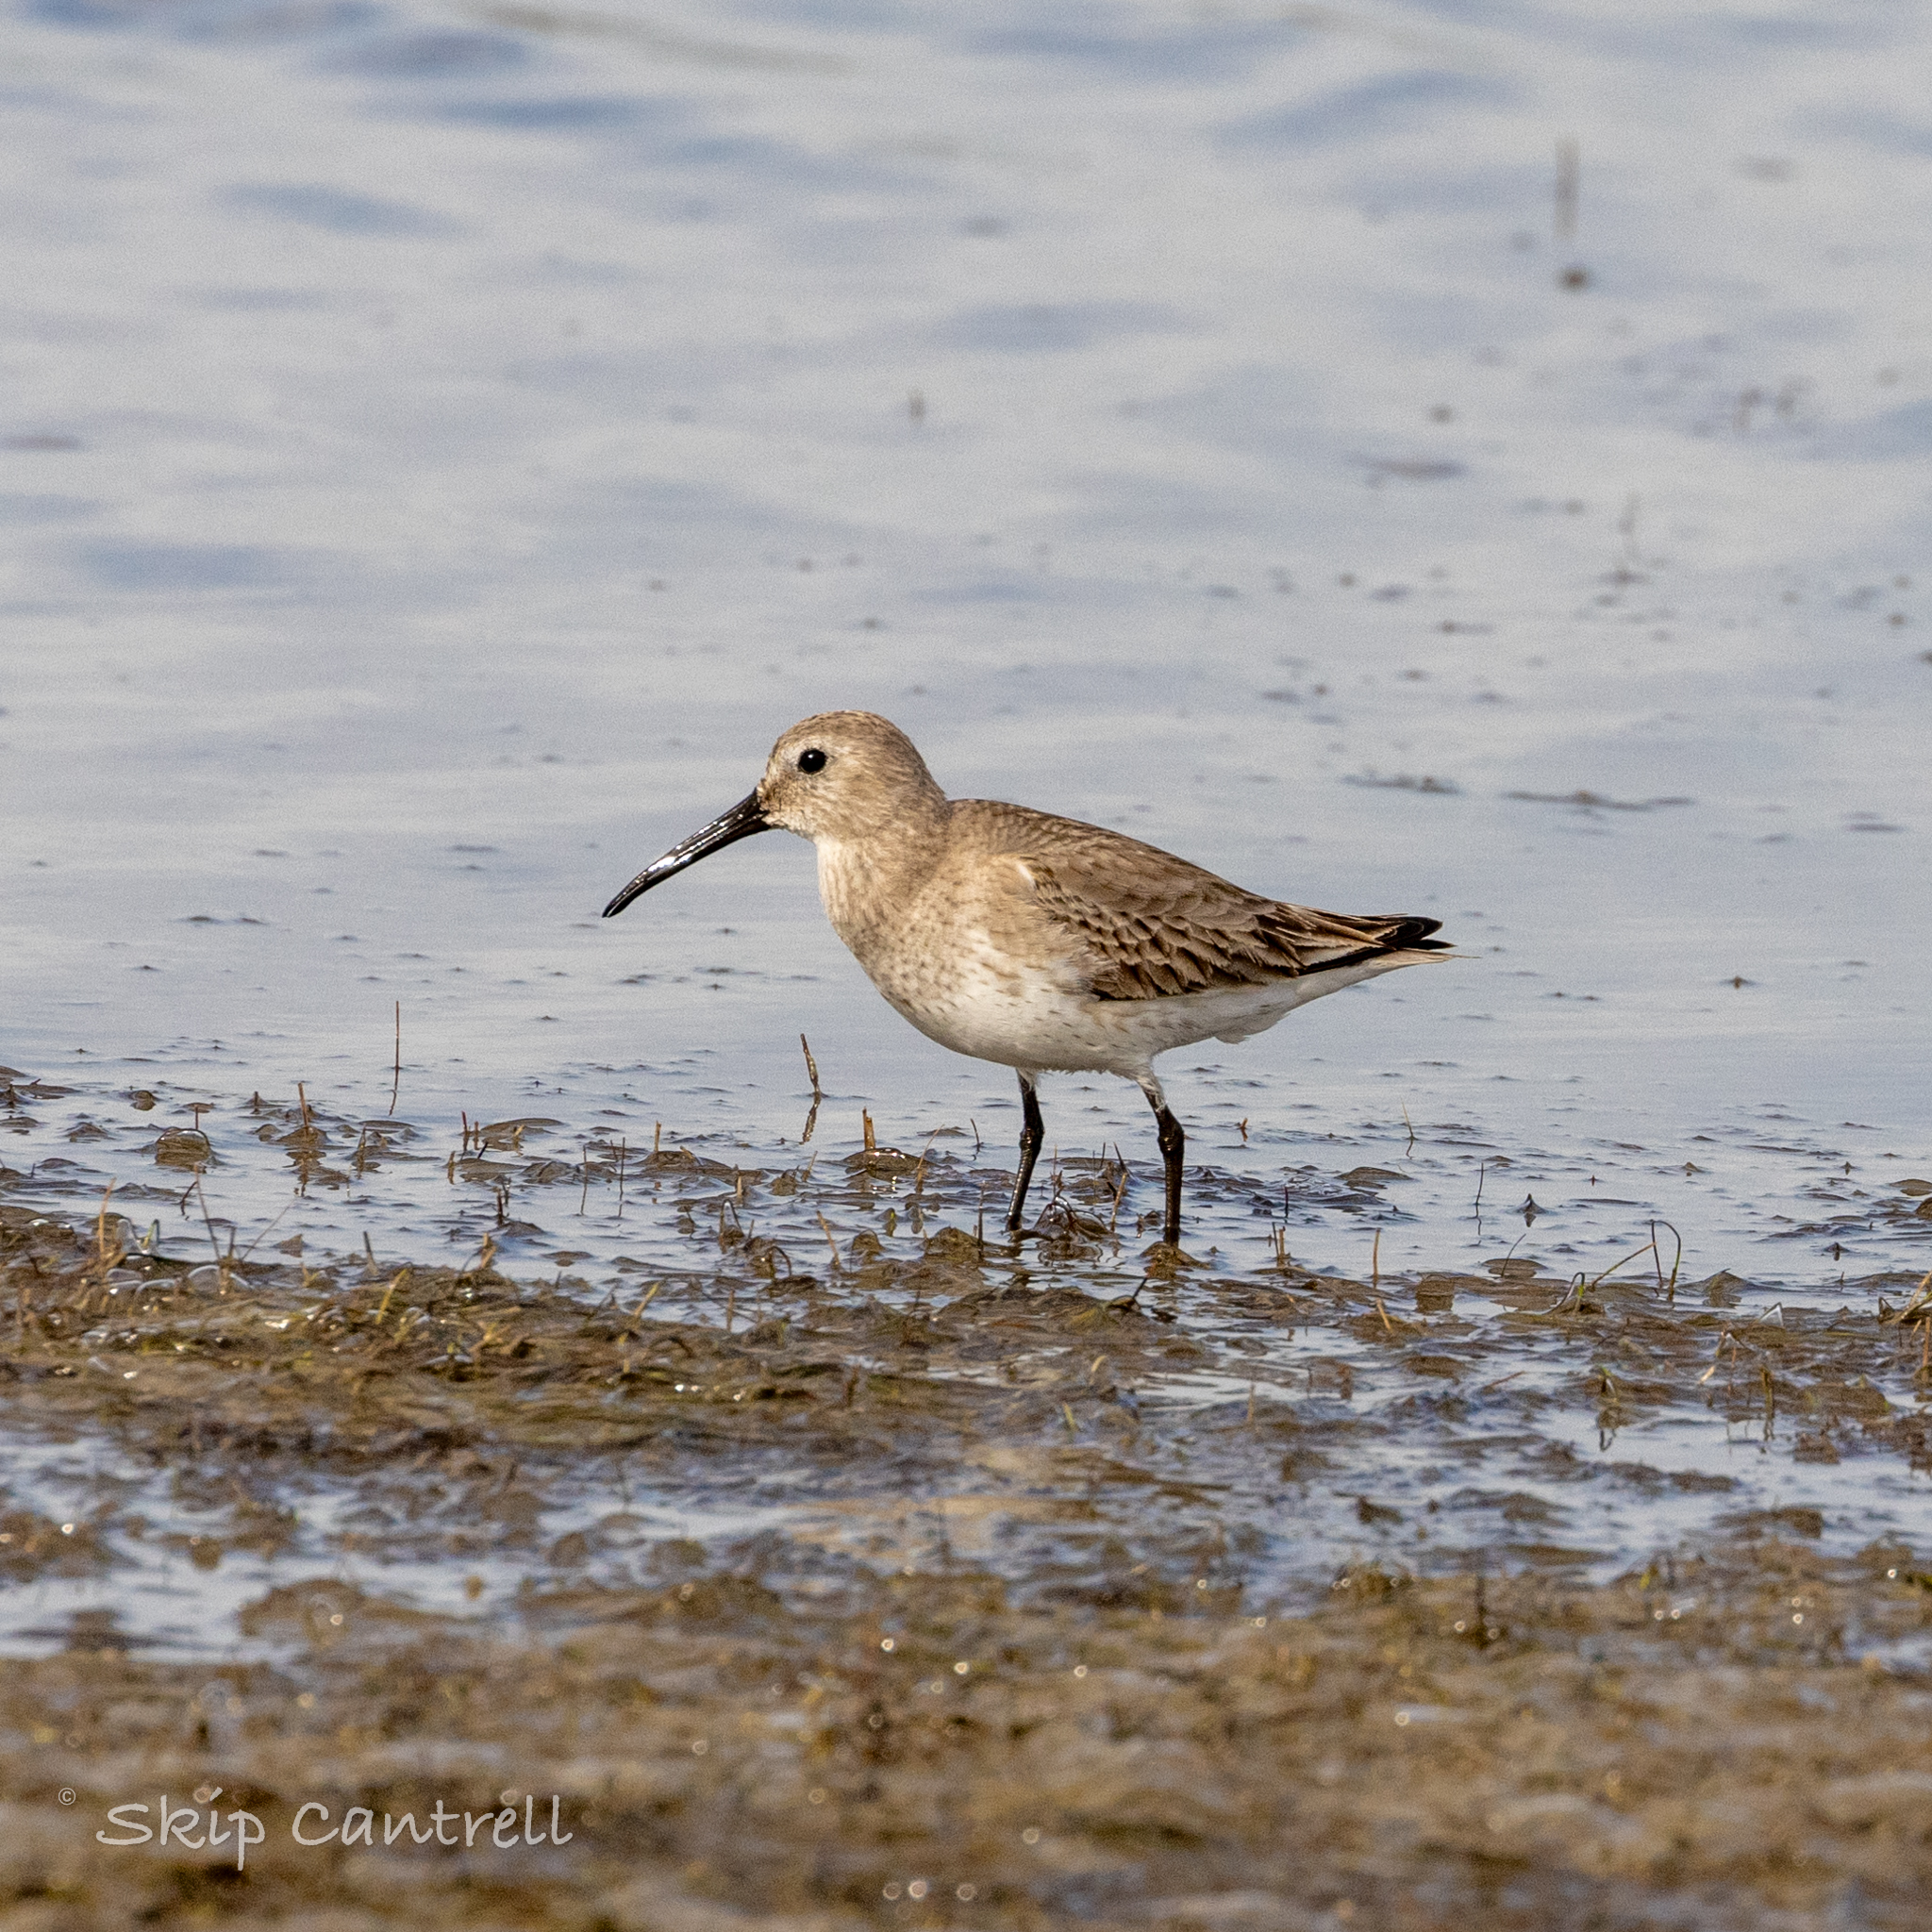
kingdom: Animalia
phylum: Chordata
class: Aves
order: Charadriiformes
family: Scolopacidae
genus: Calidris
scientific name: Calidris alpina
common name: Dunlin
